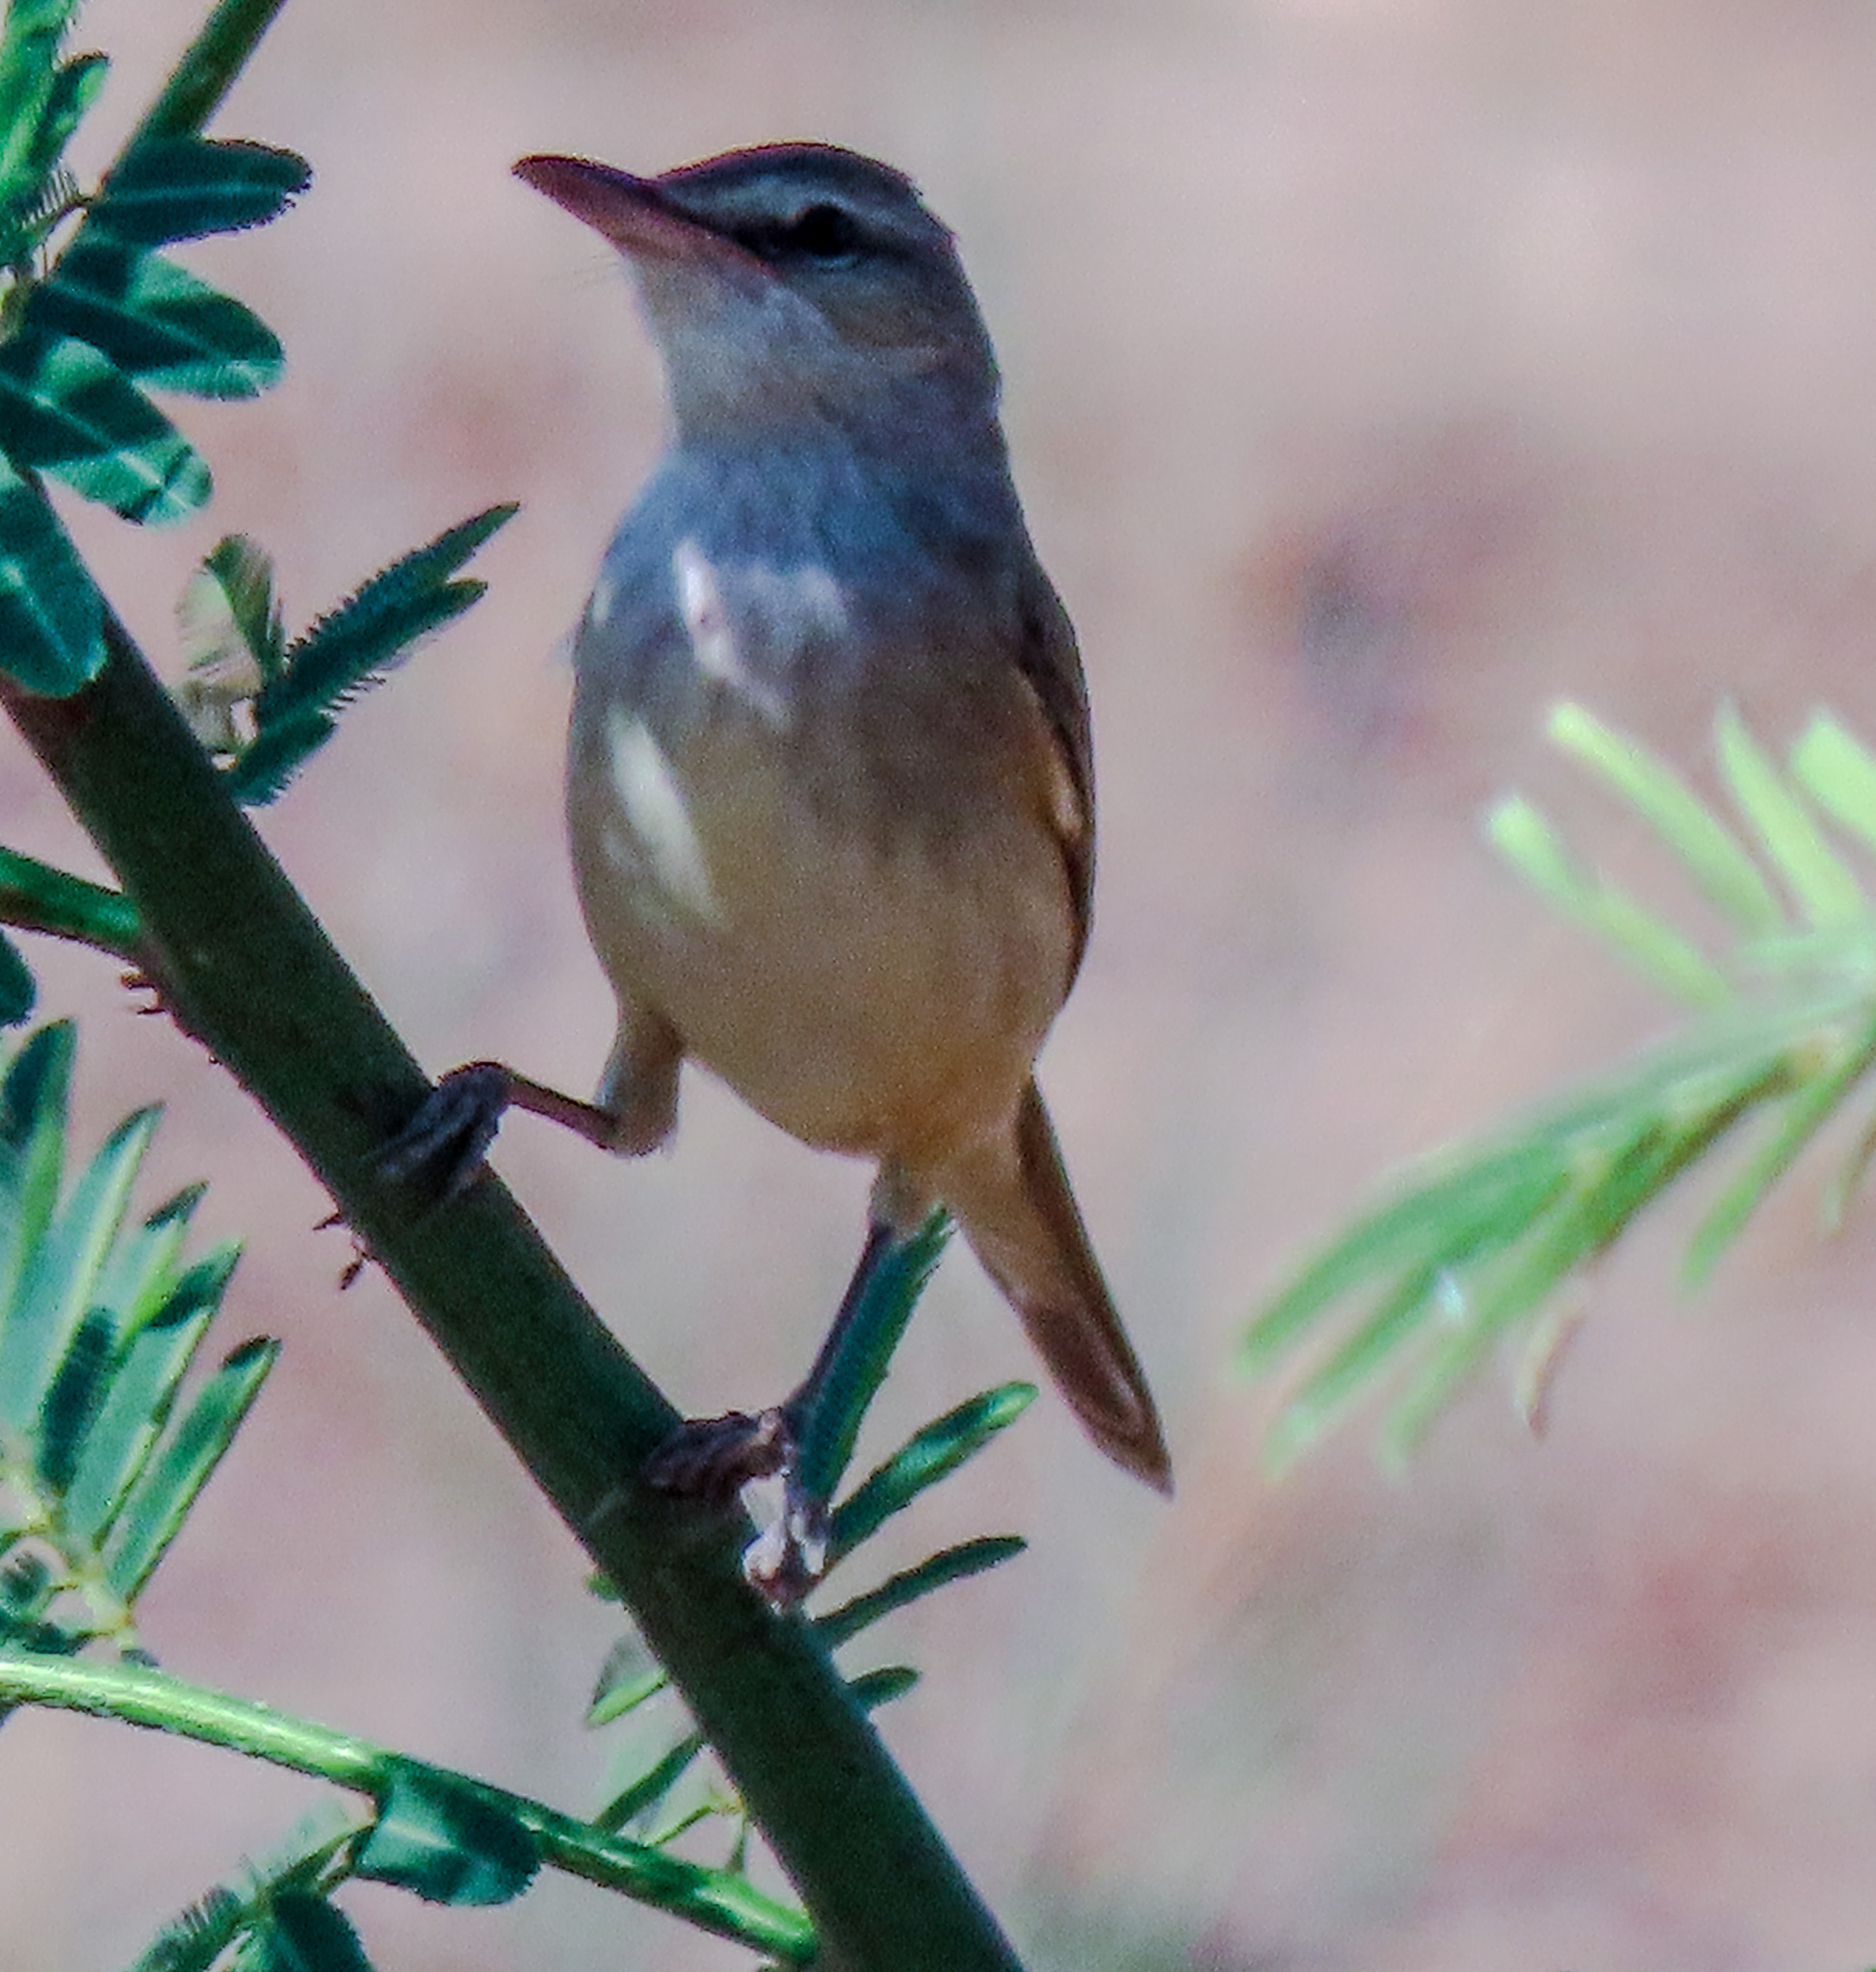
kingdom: Animalia
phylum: Chordata
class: Aves
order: Passeriformes
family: Acrocephalidae
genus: Acrocephalus
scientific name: Acrocephalus orientalis
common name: Oriental reed warbler
